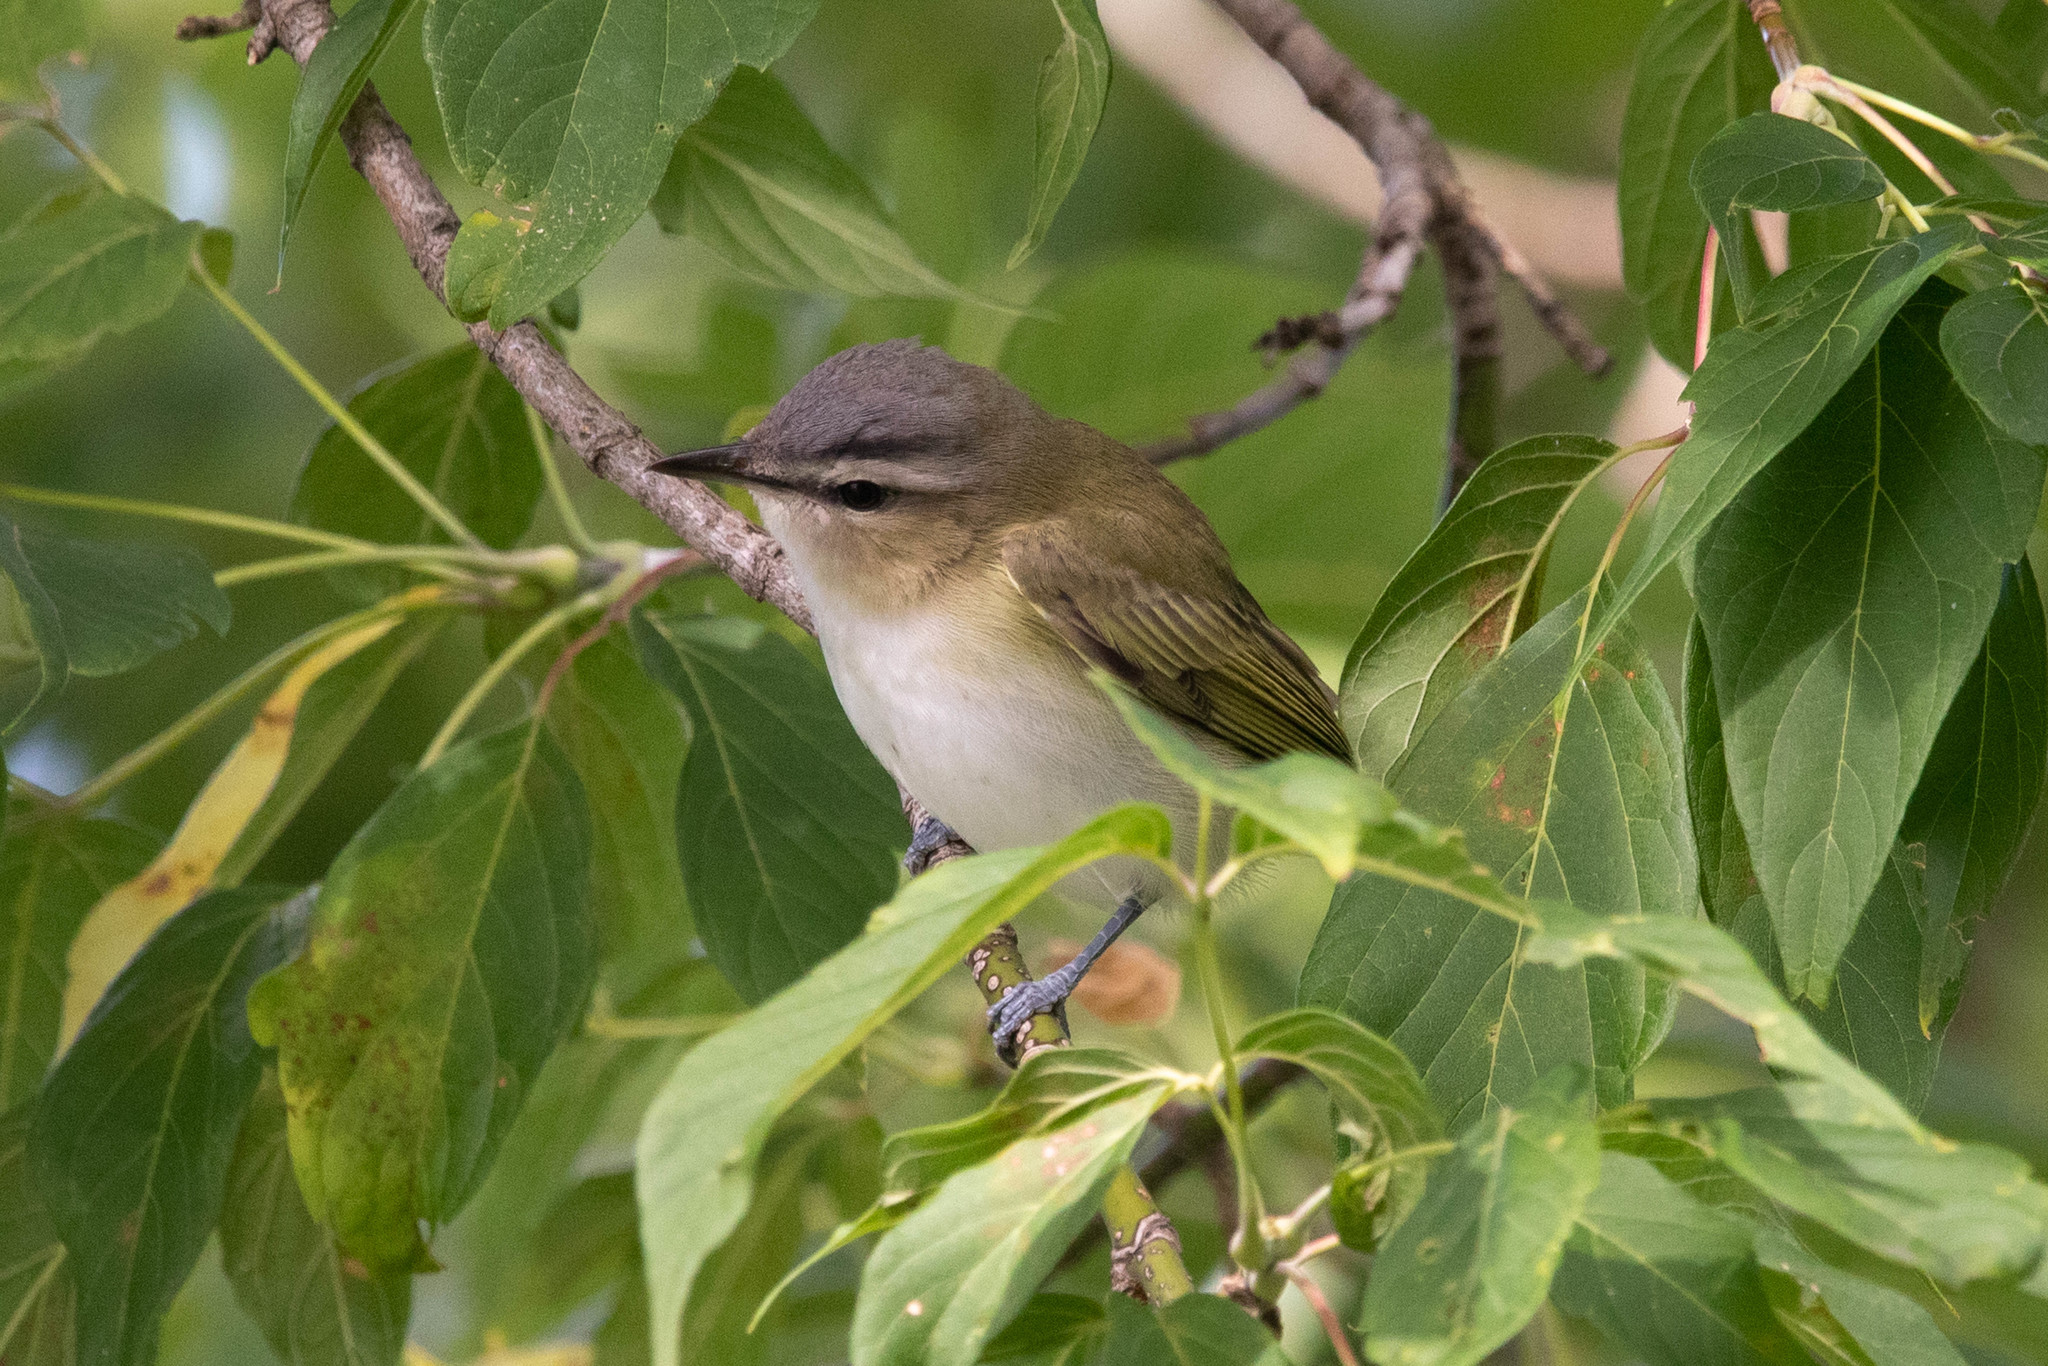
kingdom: Animalia
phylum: Chordata
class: Aves
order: Passeriformes
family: Vireonidae
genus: Vireo
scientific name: Vireo olivaceus
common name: Red-eyed vireo
